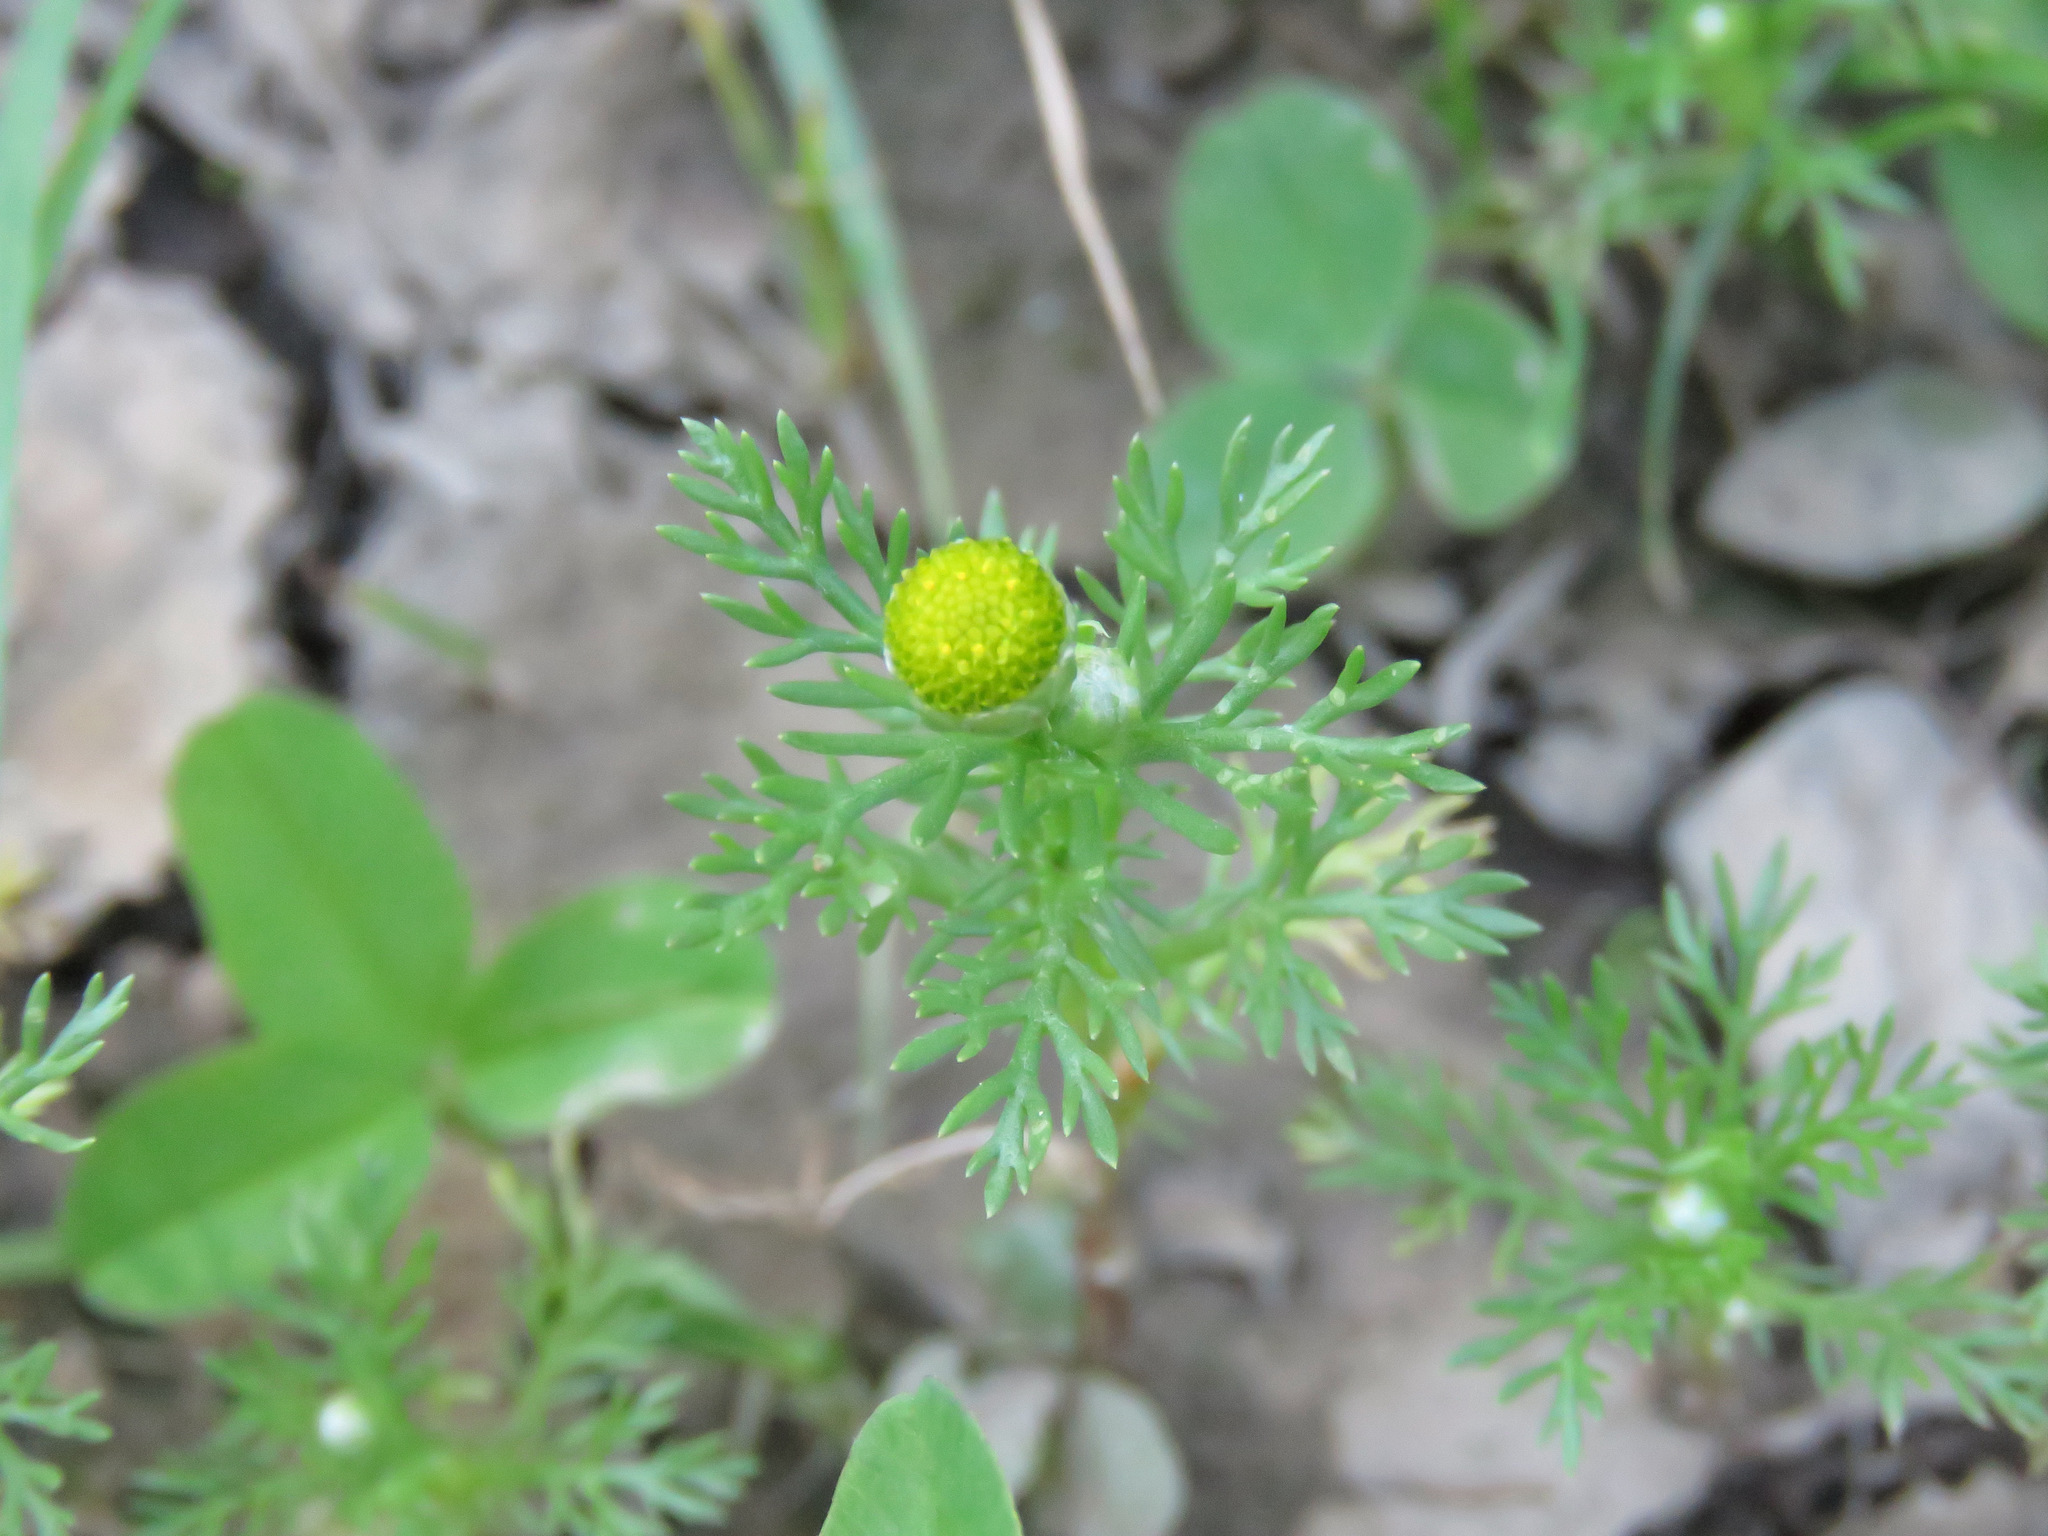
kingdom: Plantae
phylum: Tracheophyta
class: Magnoliopsida
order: Asterales
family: Asteraceae
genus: Matricaria
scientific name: Matricaria discoidea
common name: Disc mayweed
